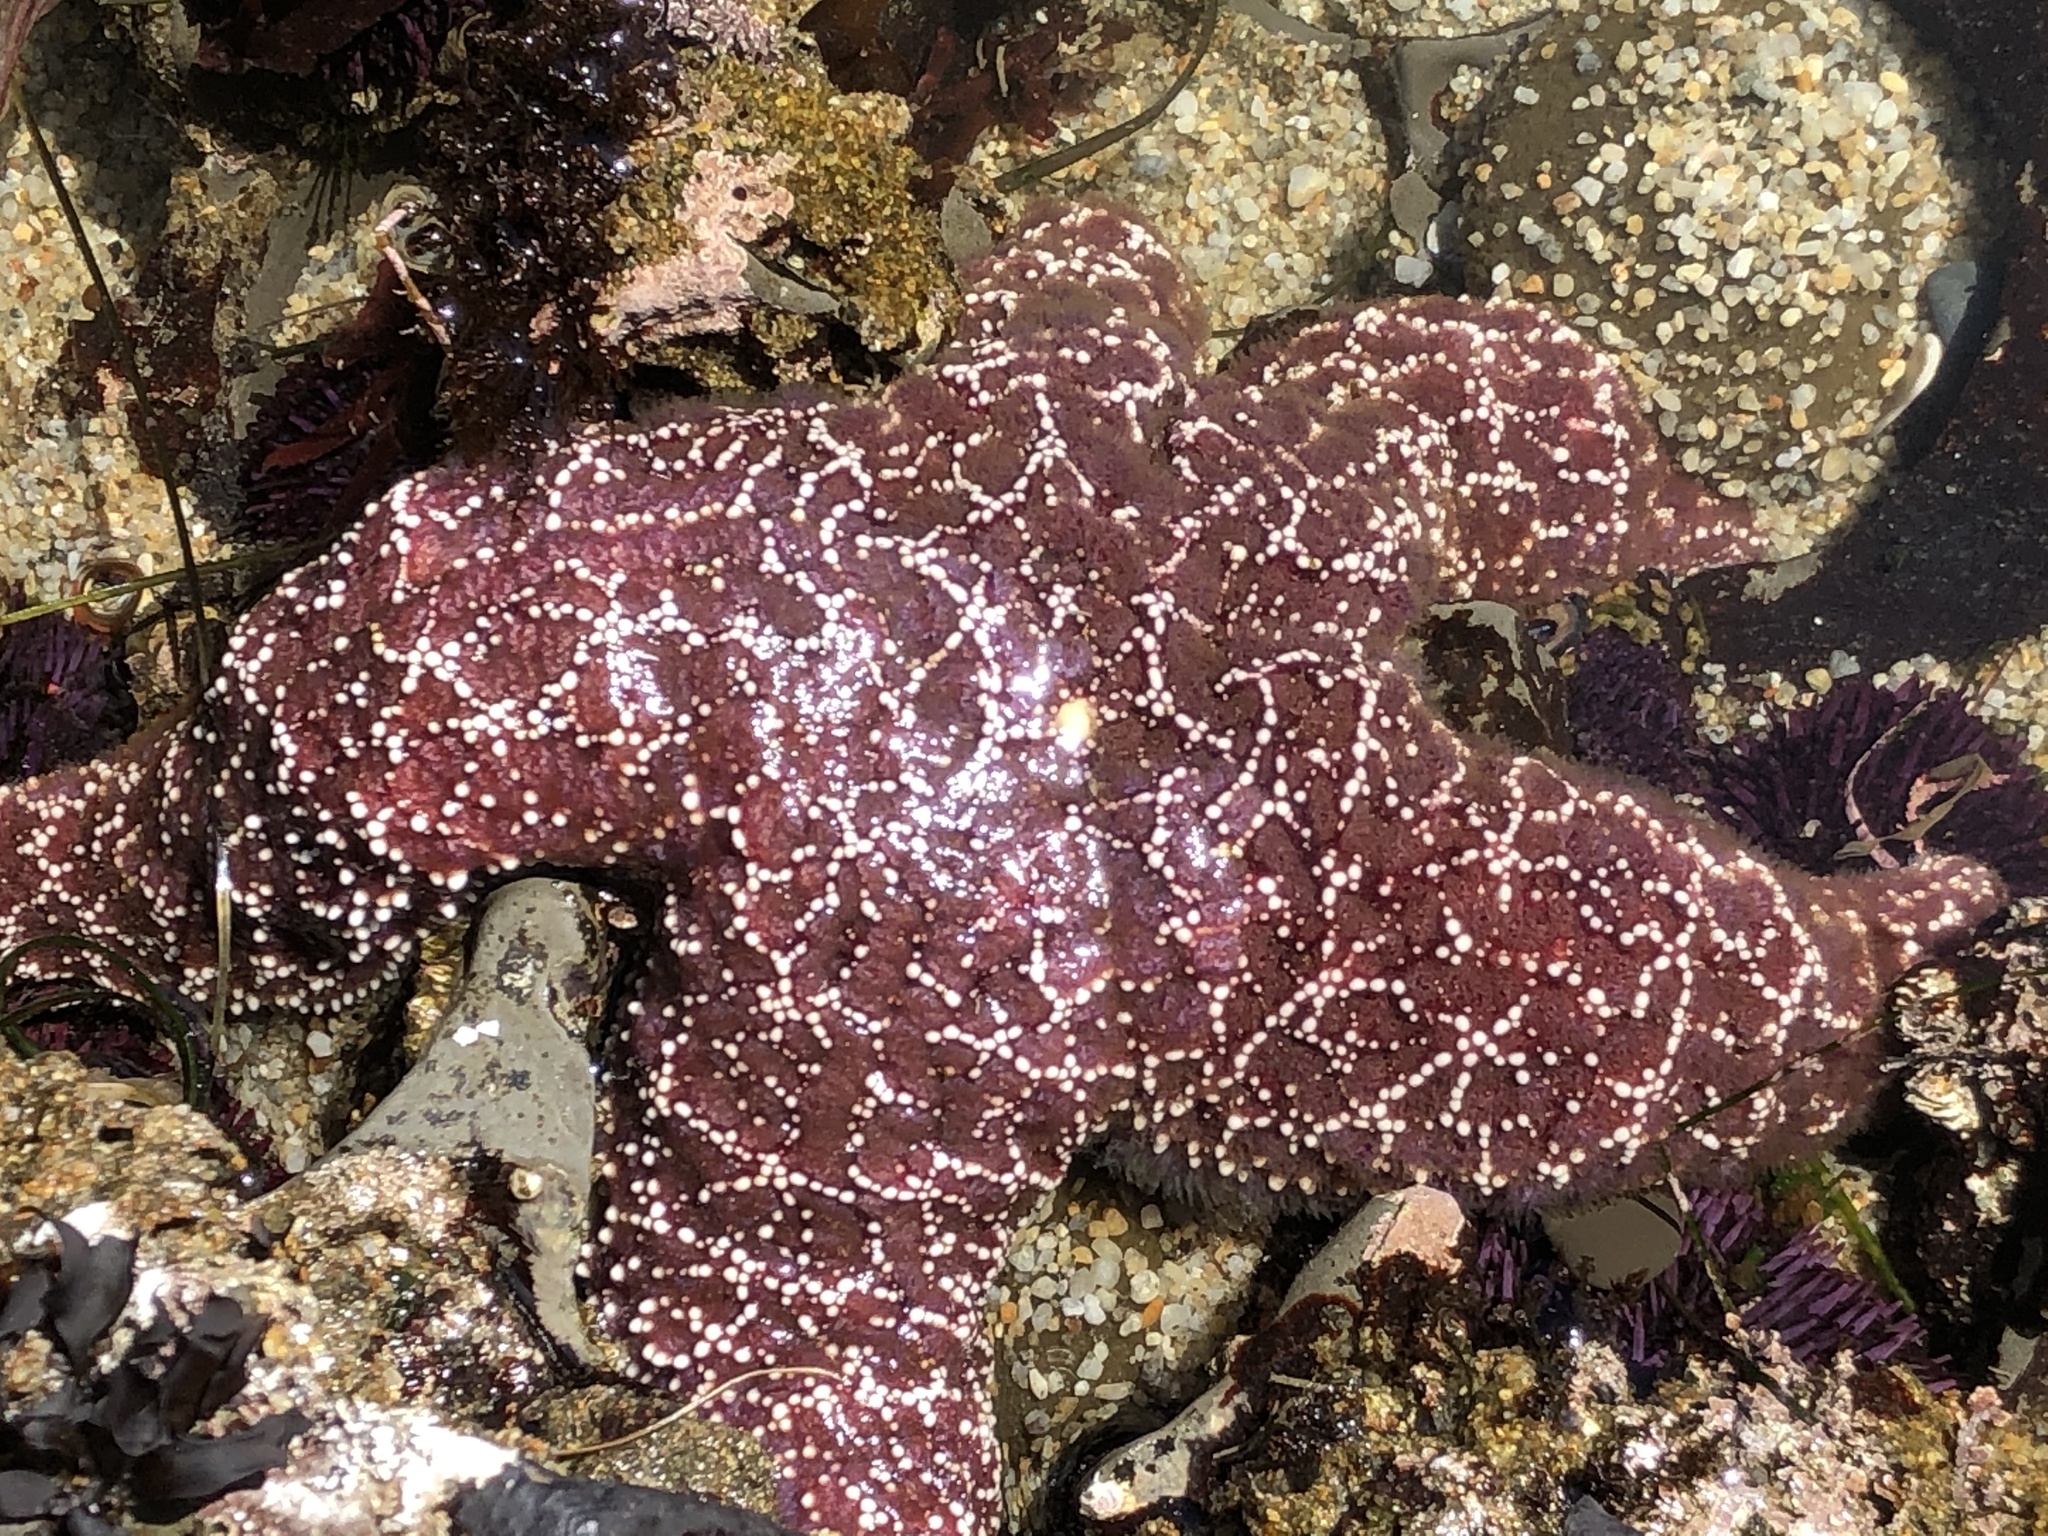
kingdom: Animalia
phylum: Echinodermata
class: Asteroidea
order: Forcipulatida
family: Asteriidae
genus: Pisaster
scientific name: Pisaster ochraceus
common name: Ochre stars
